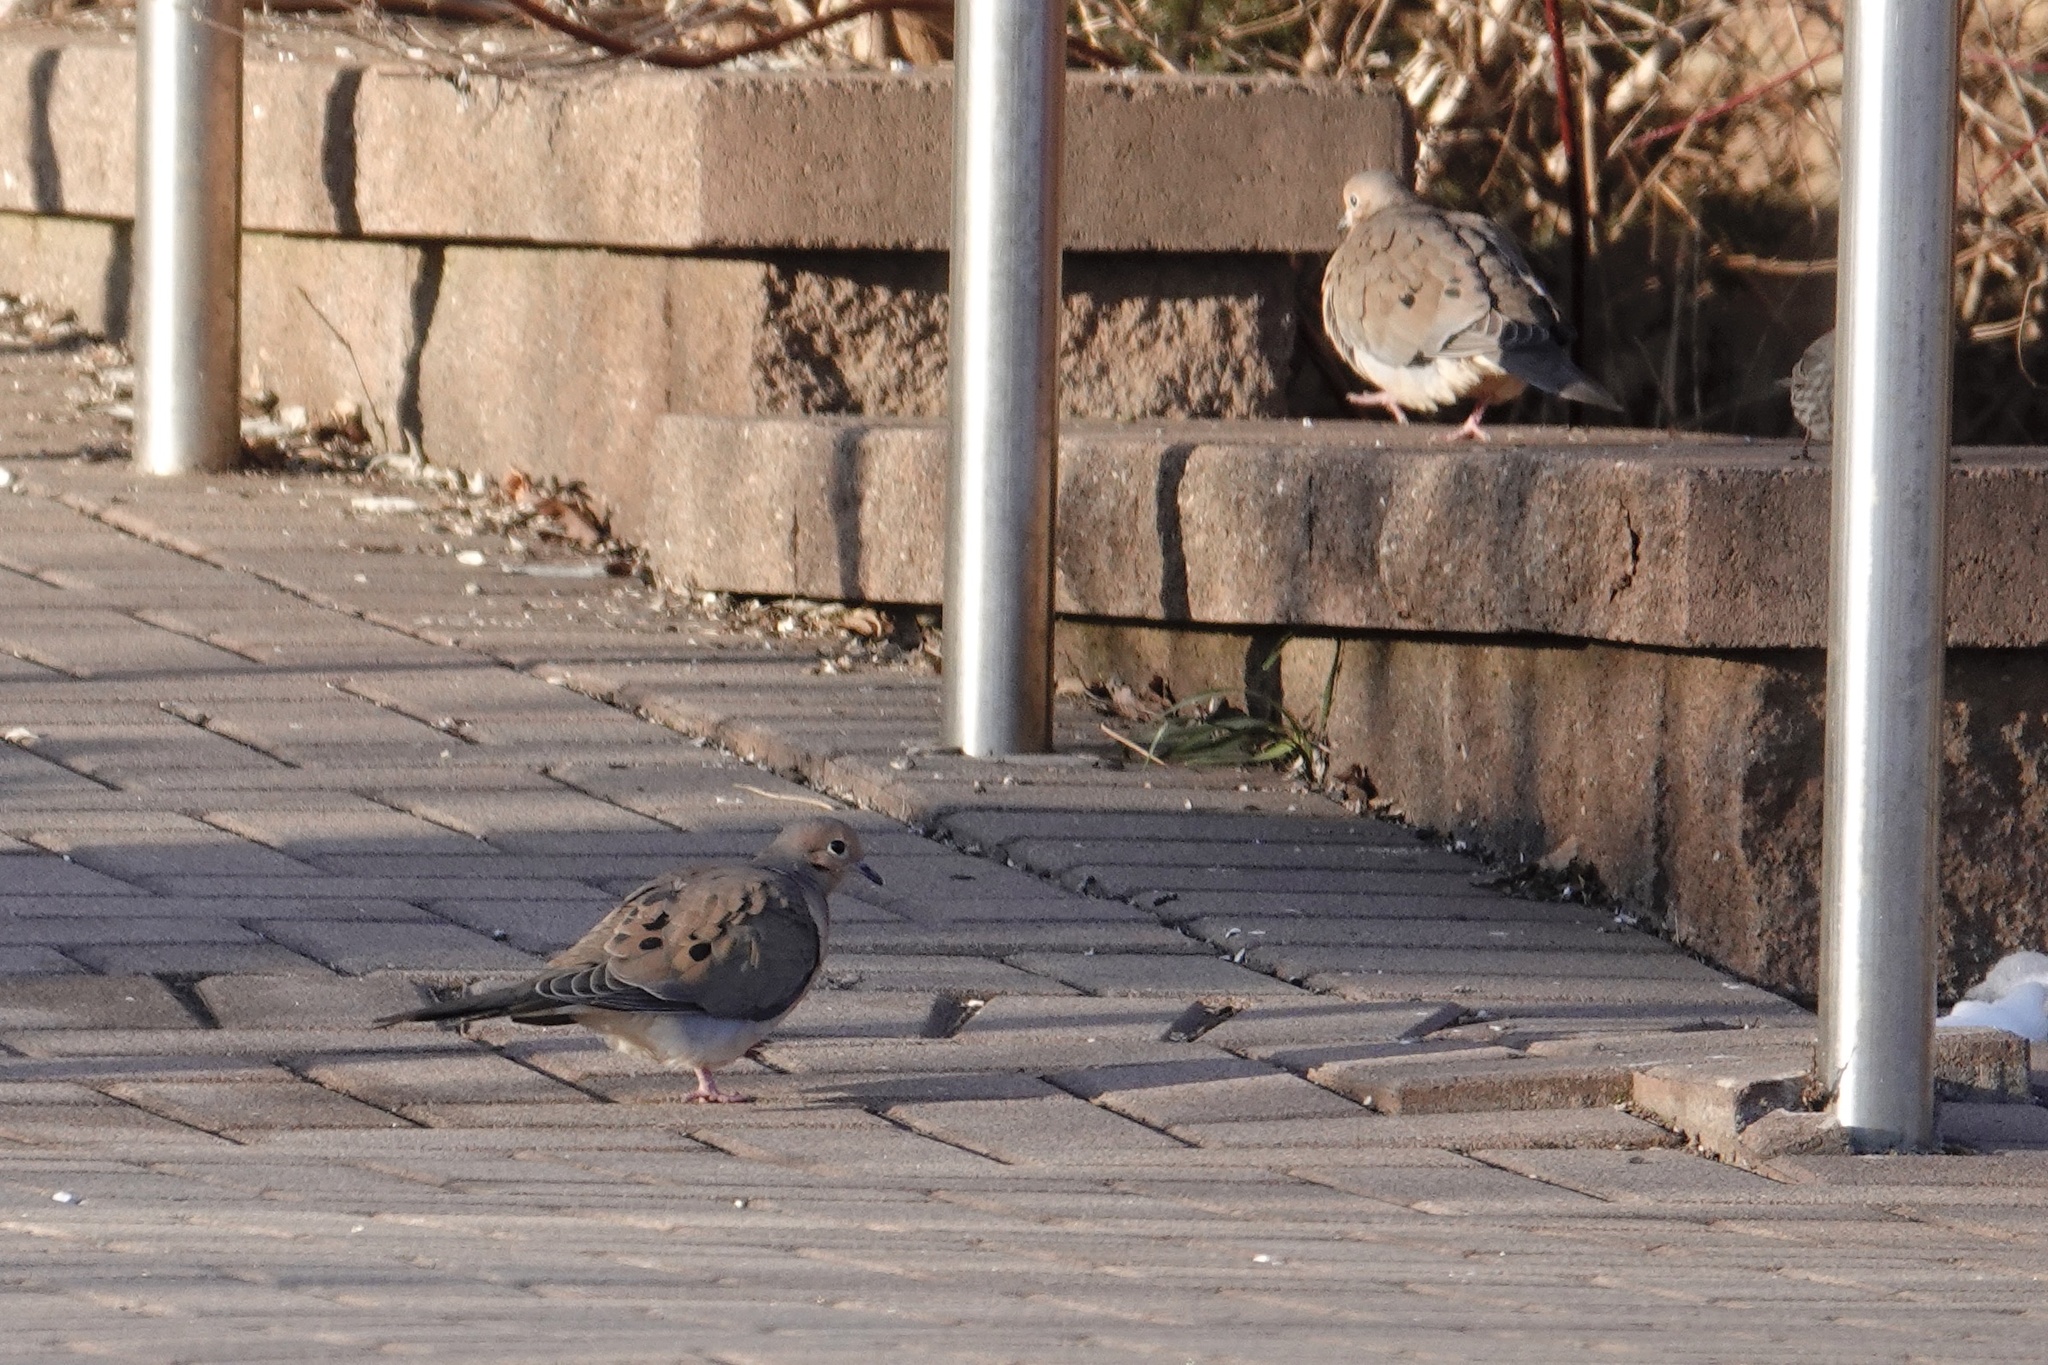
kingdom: Animalia
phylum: Chordata
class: Aves
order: Columbiformes
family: Columbidae
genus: Zenaida
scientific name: Zenaida macroura
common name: Mourning dove
